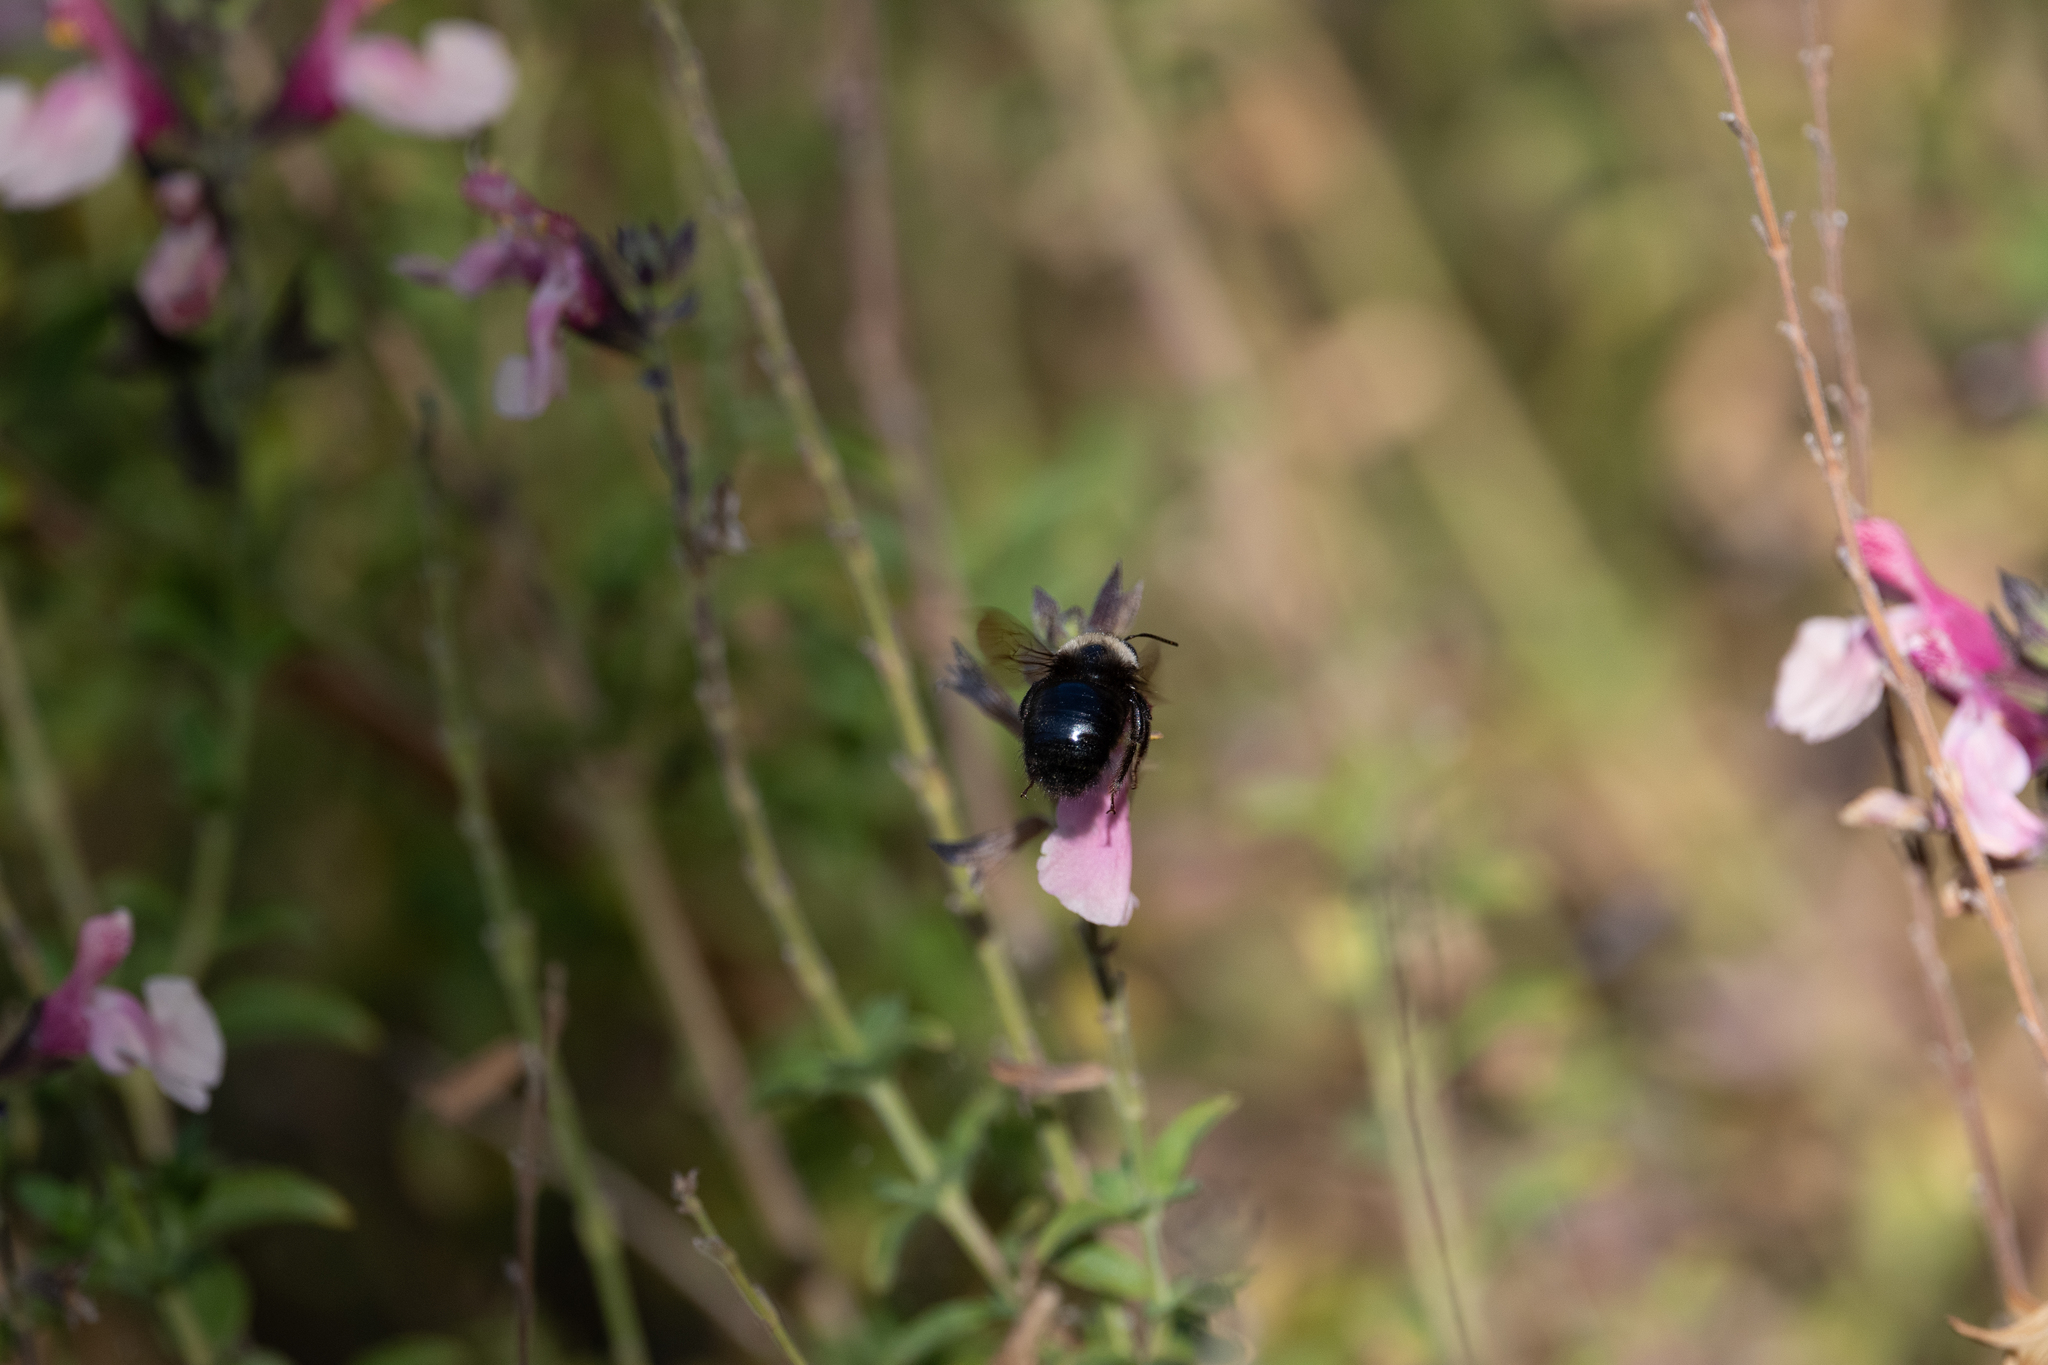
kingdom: Animalia
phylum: Arthropoda
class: Insecta
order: Hymenoptera
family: Apidae
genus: Xylocopa
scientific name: Xylocopa tabaniformis
